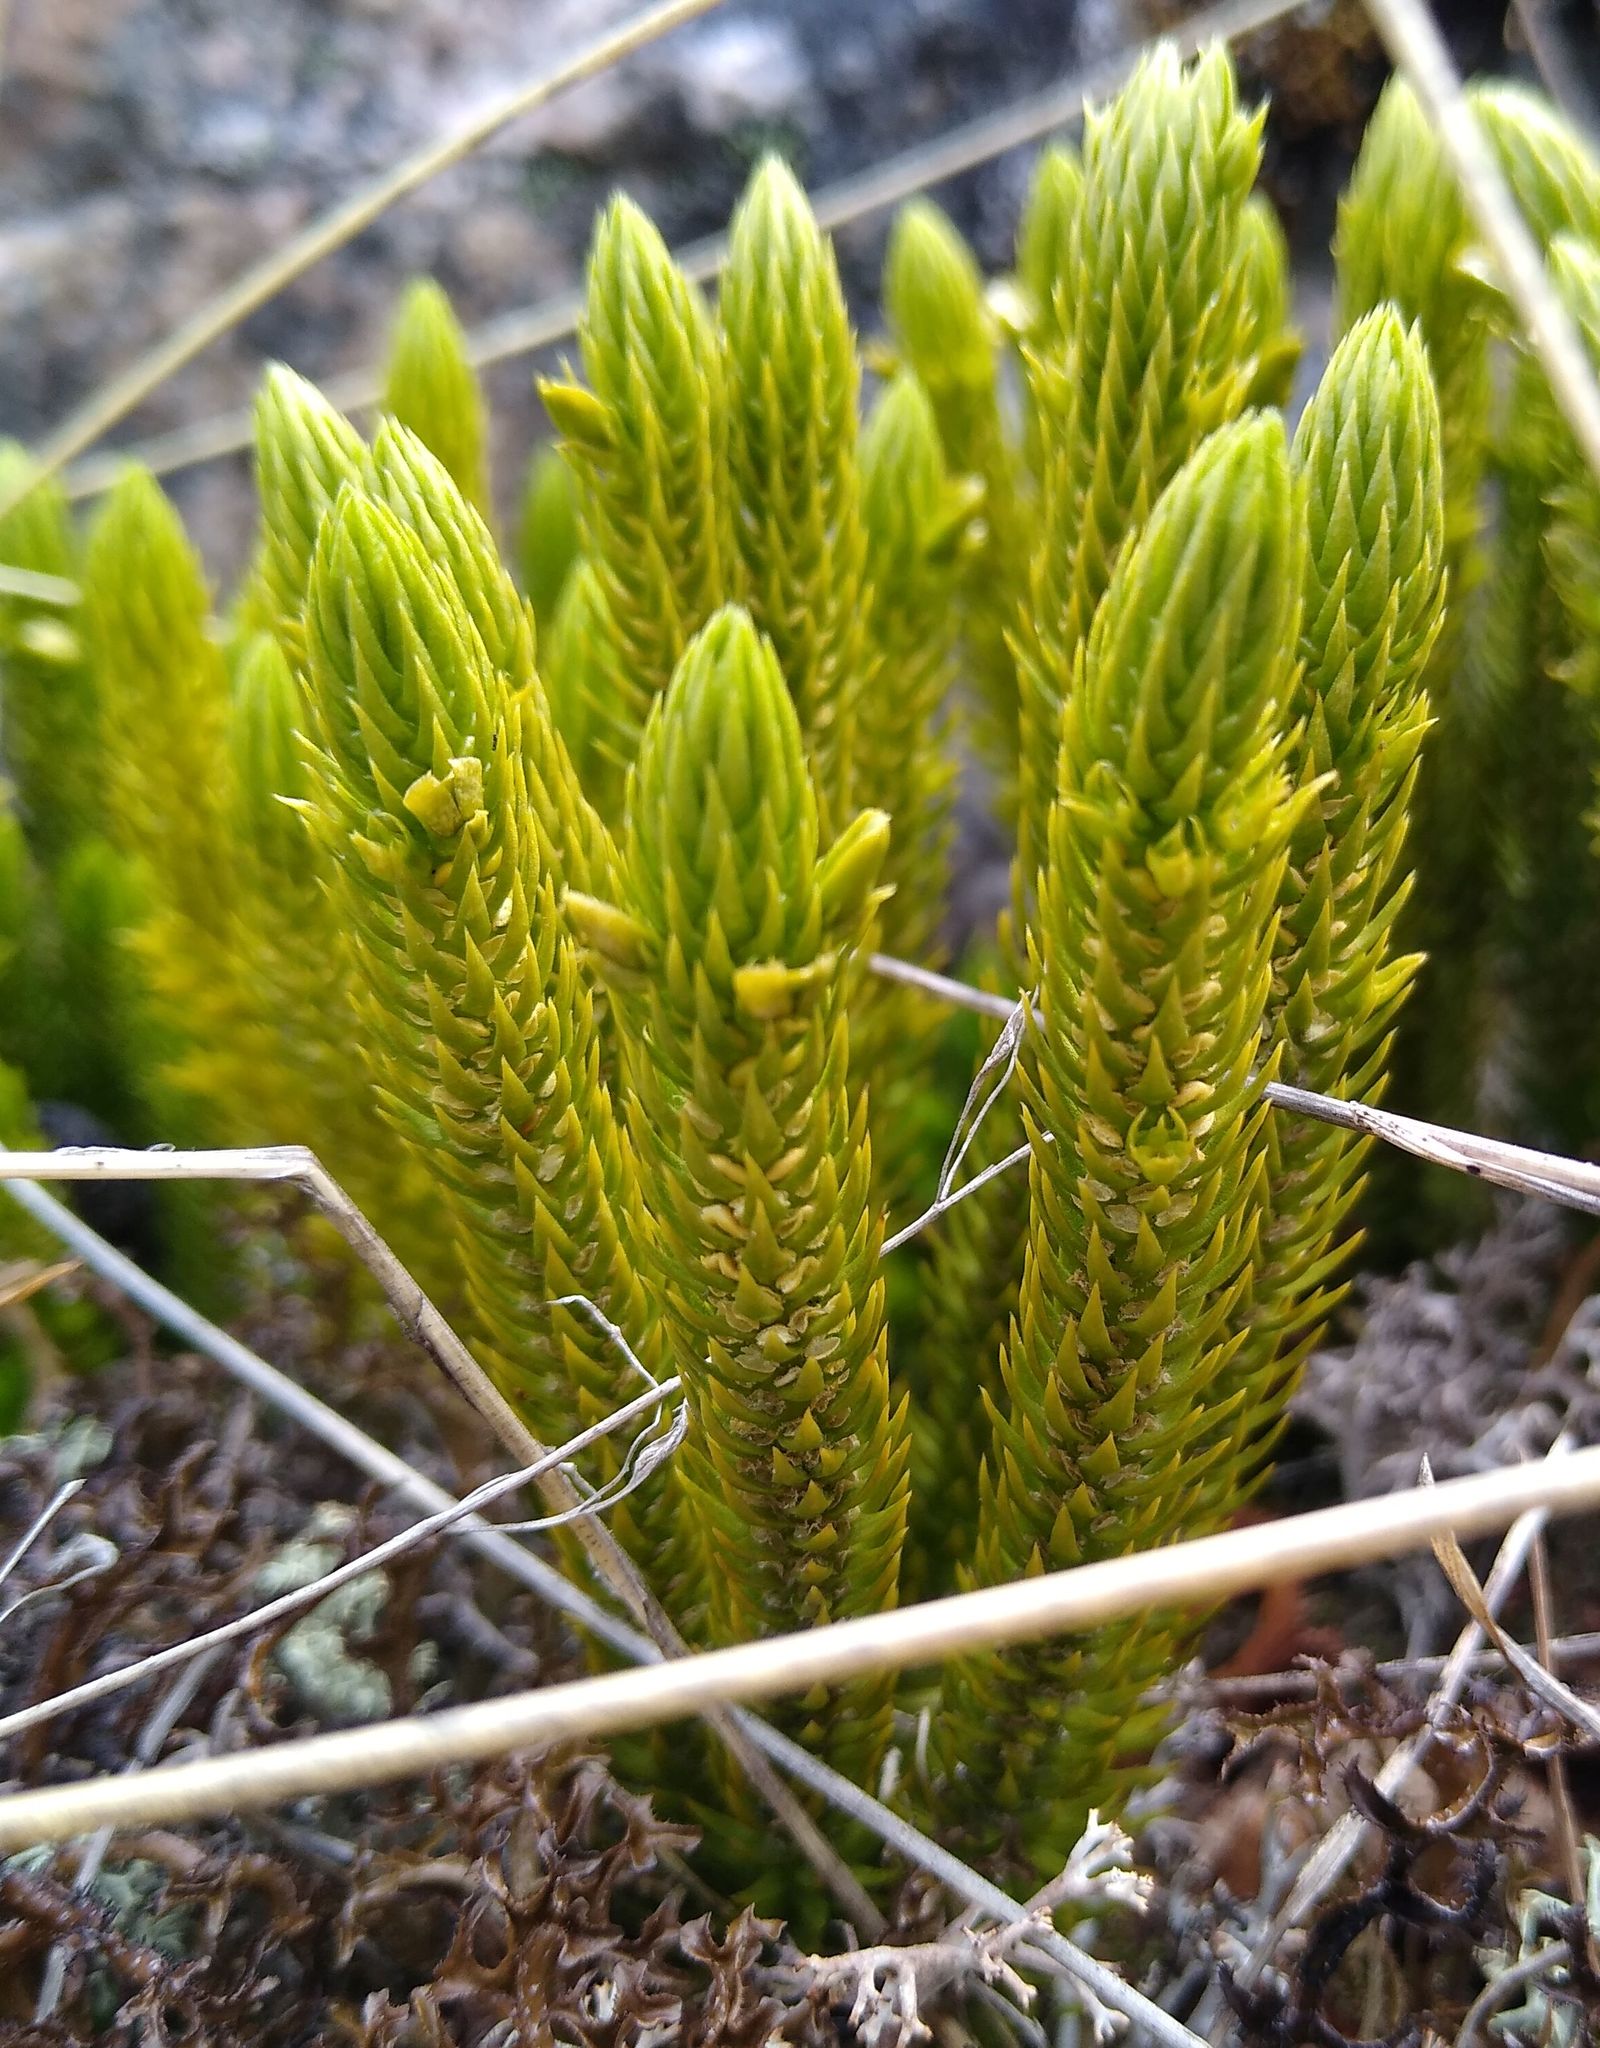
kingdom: Plantae
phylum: Tracheophyta
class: Lycopodiopsida
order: Lycopodiales
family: Lycopodiaceae
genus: Huperzia
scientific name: Huperzia selago
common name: Northern firmoss
